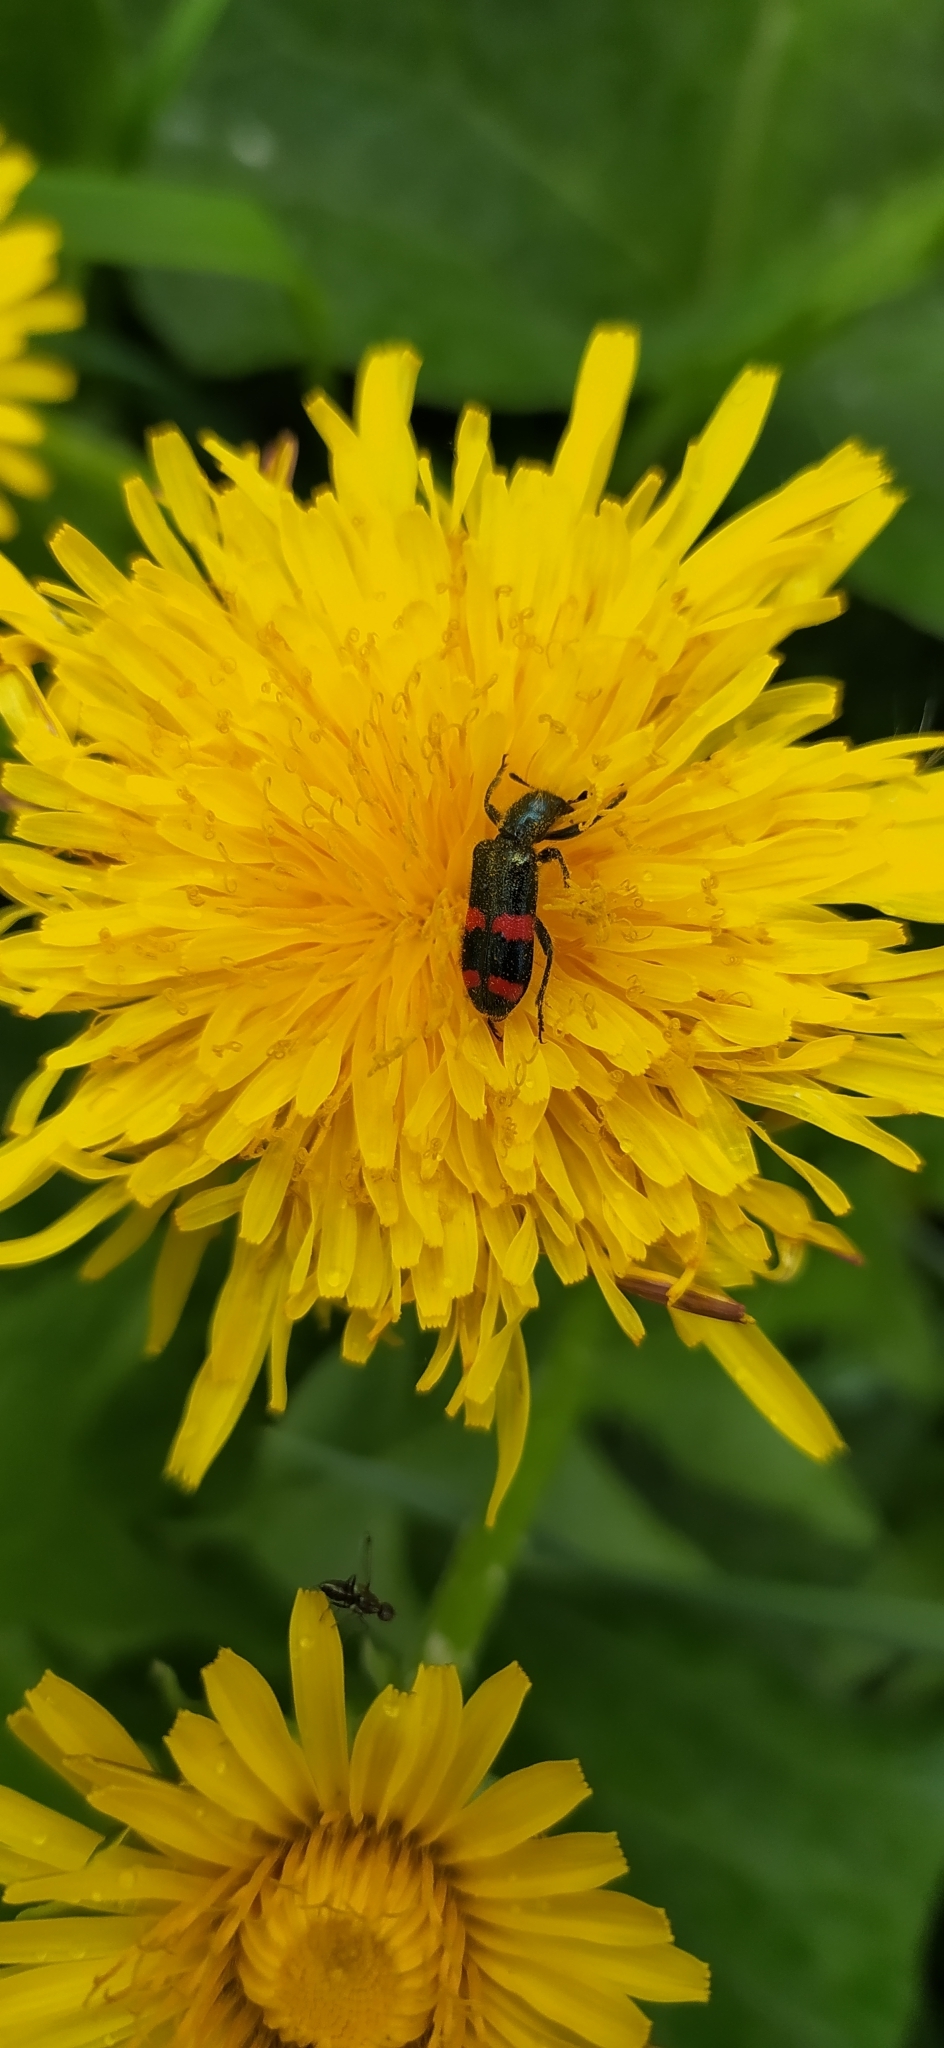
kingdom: Animalia
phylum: Arthropoda
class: Insecta
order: Coleoptera
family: Cleridae
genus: Trichodes
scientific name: Trichodes
